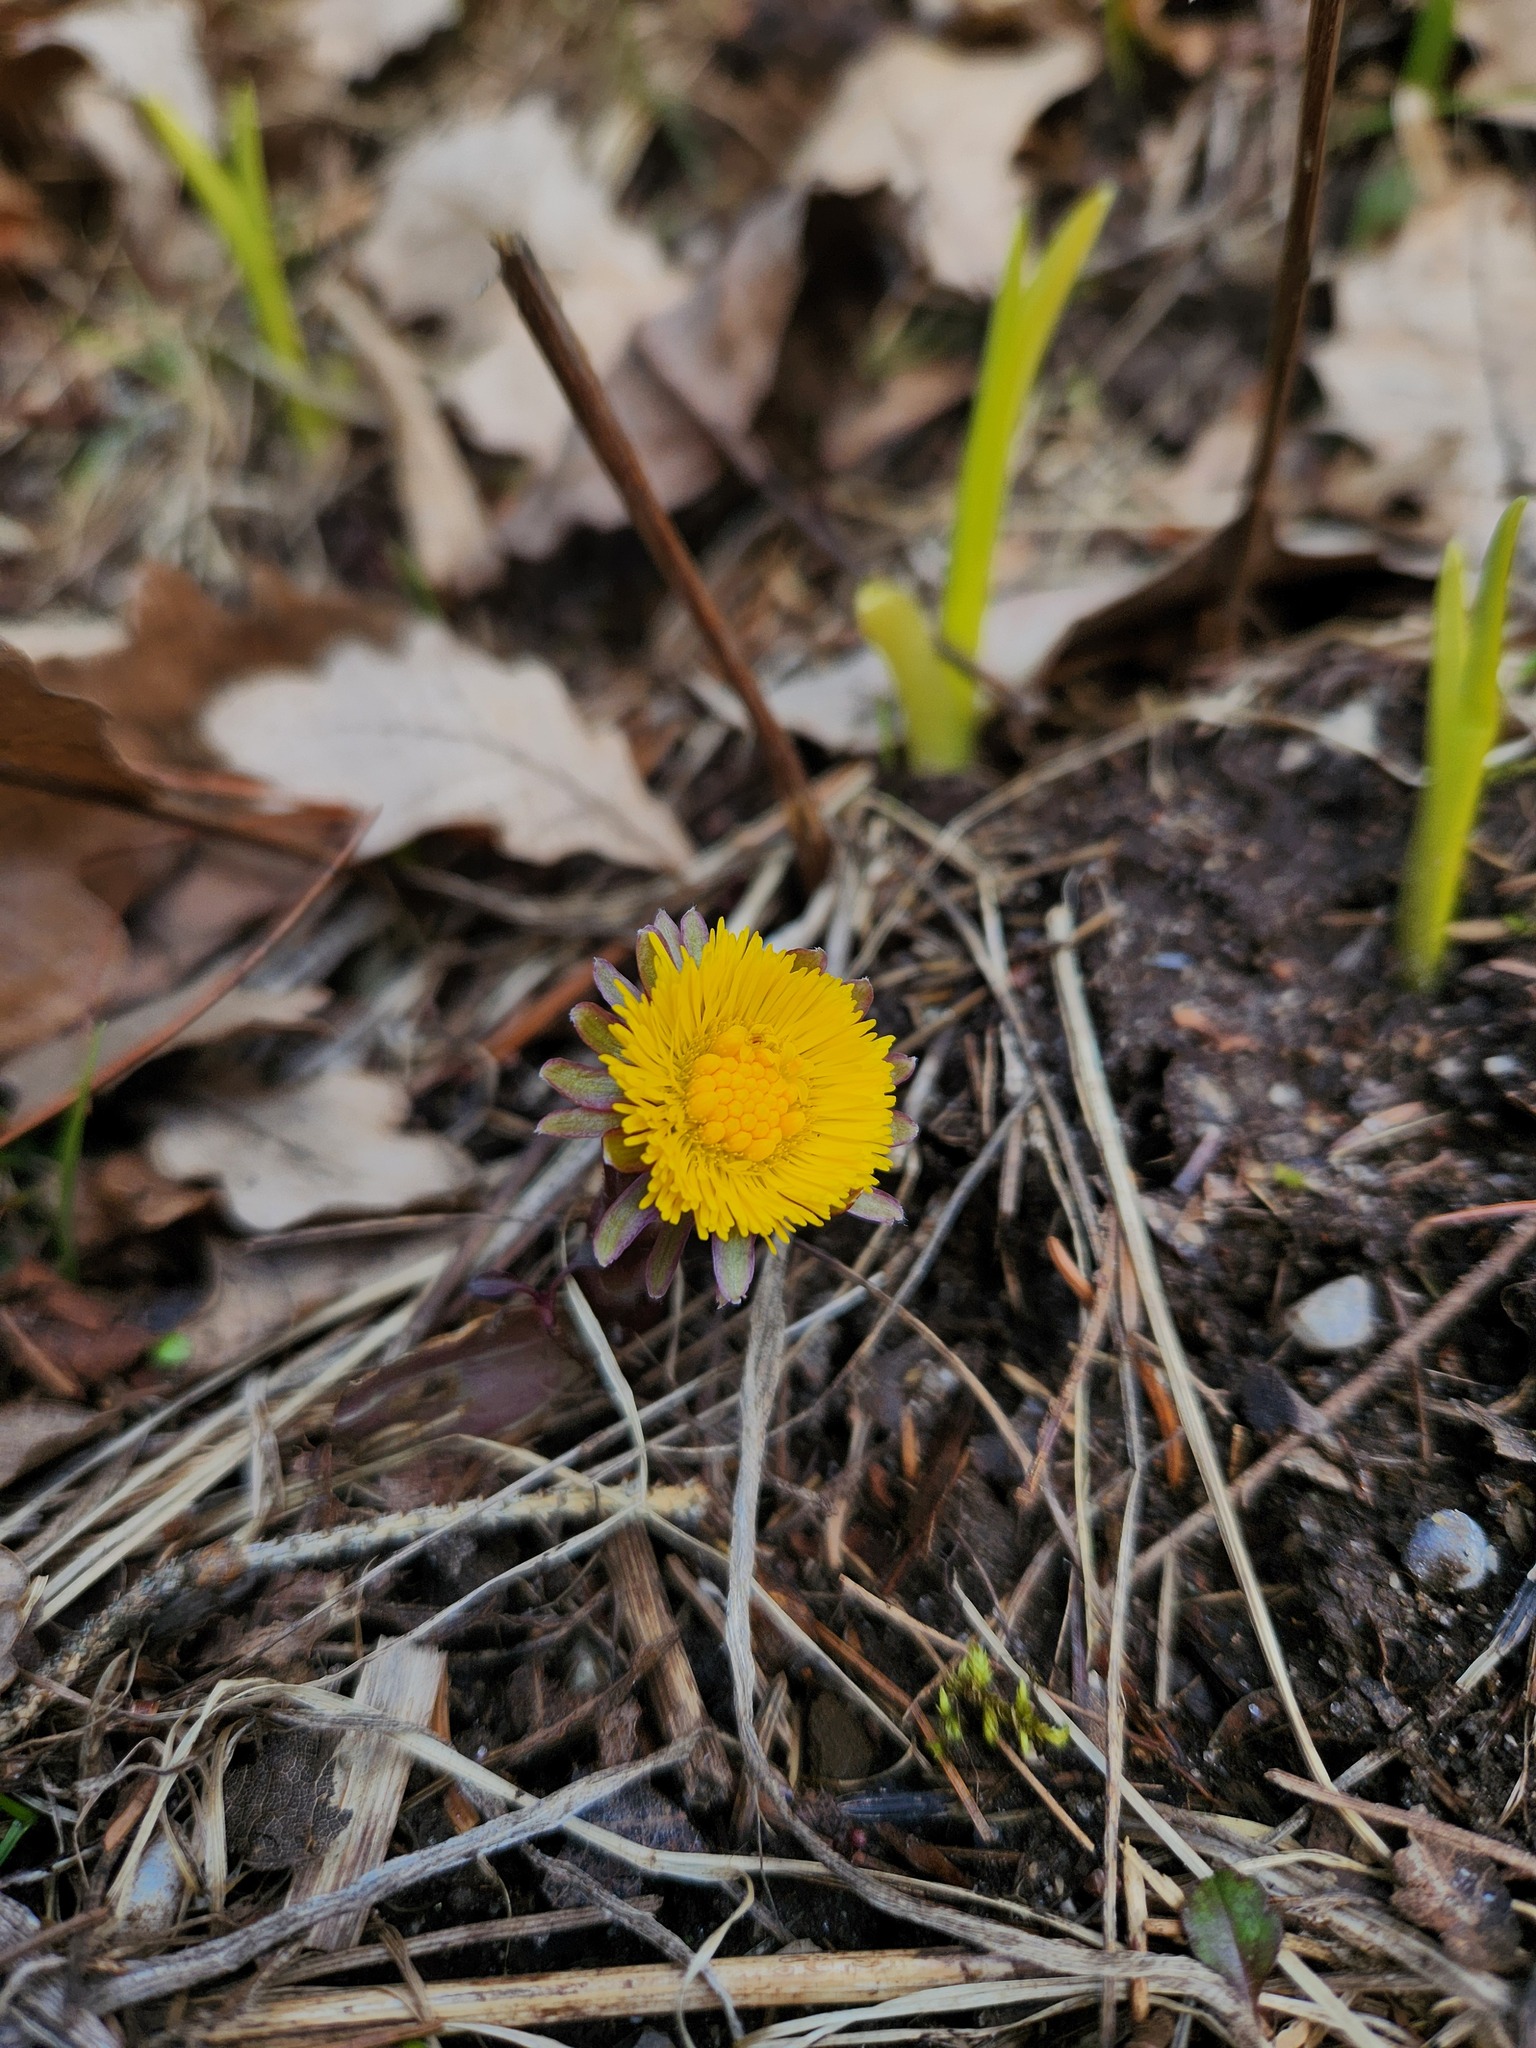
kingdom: Plantae
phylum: Tracheophyta
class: Magnoliopsida
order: Asterales
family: Asteraceae
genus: Tussilago
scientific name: Tussilago farfara
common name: Coltsfoot
